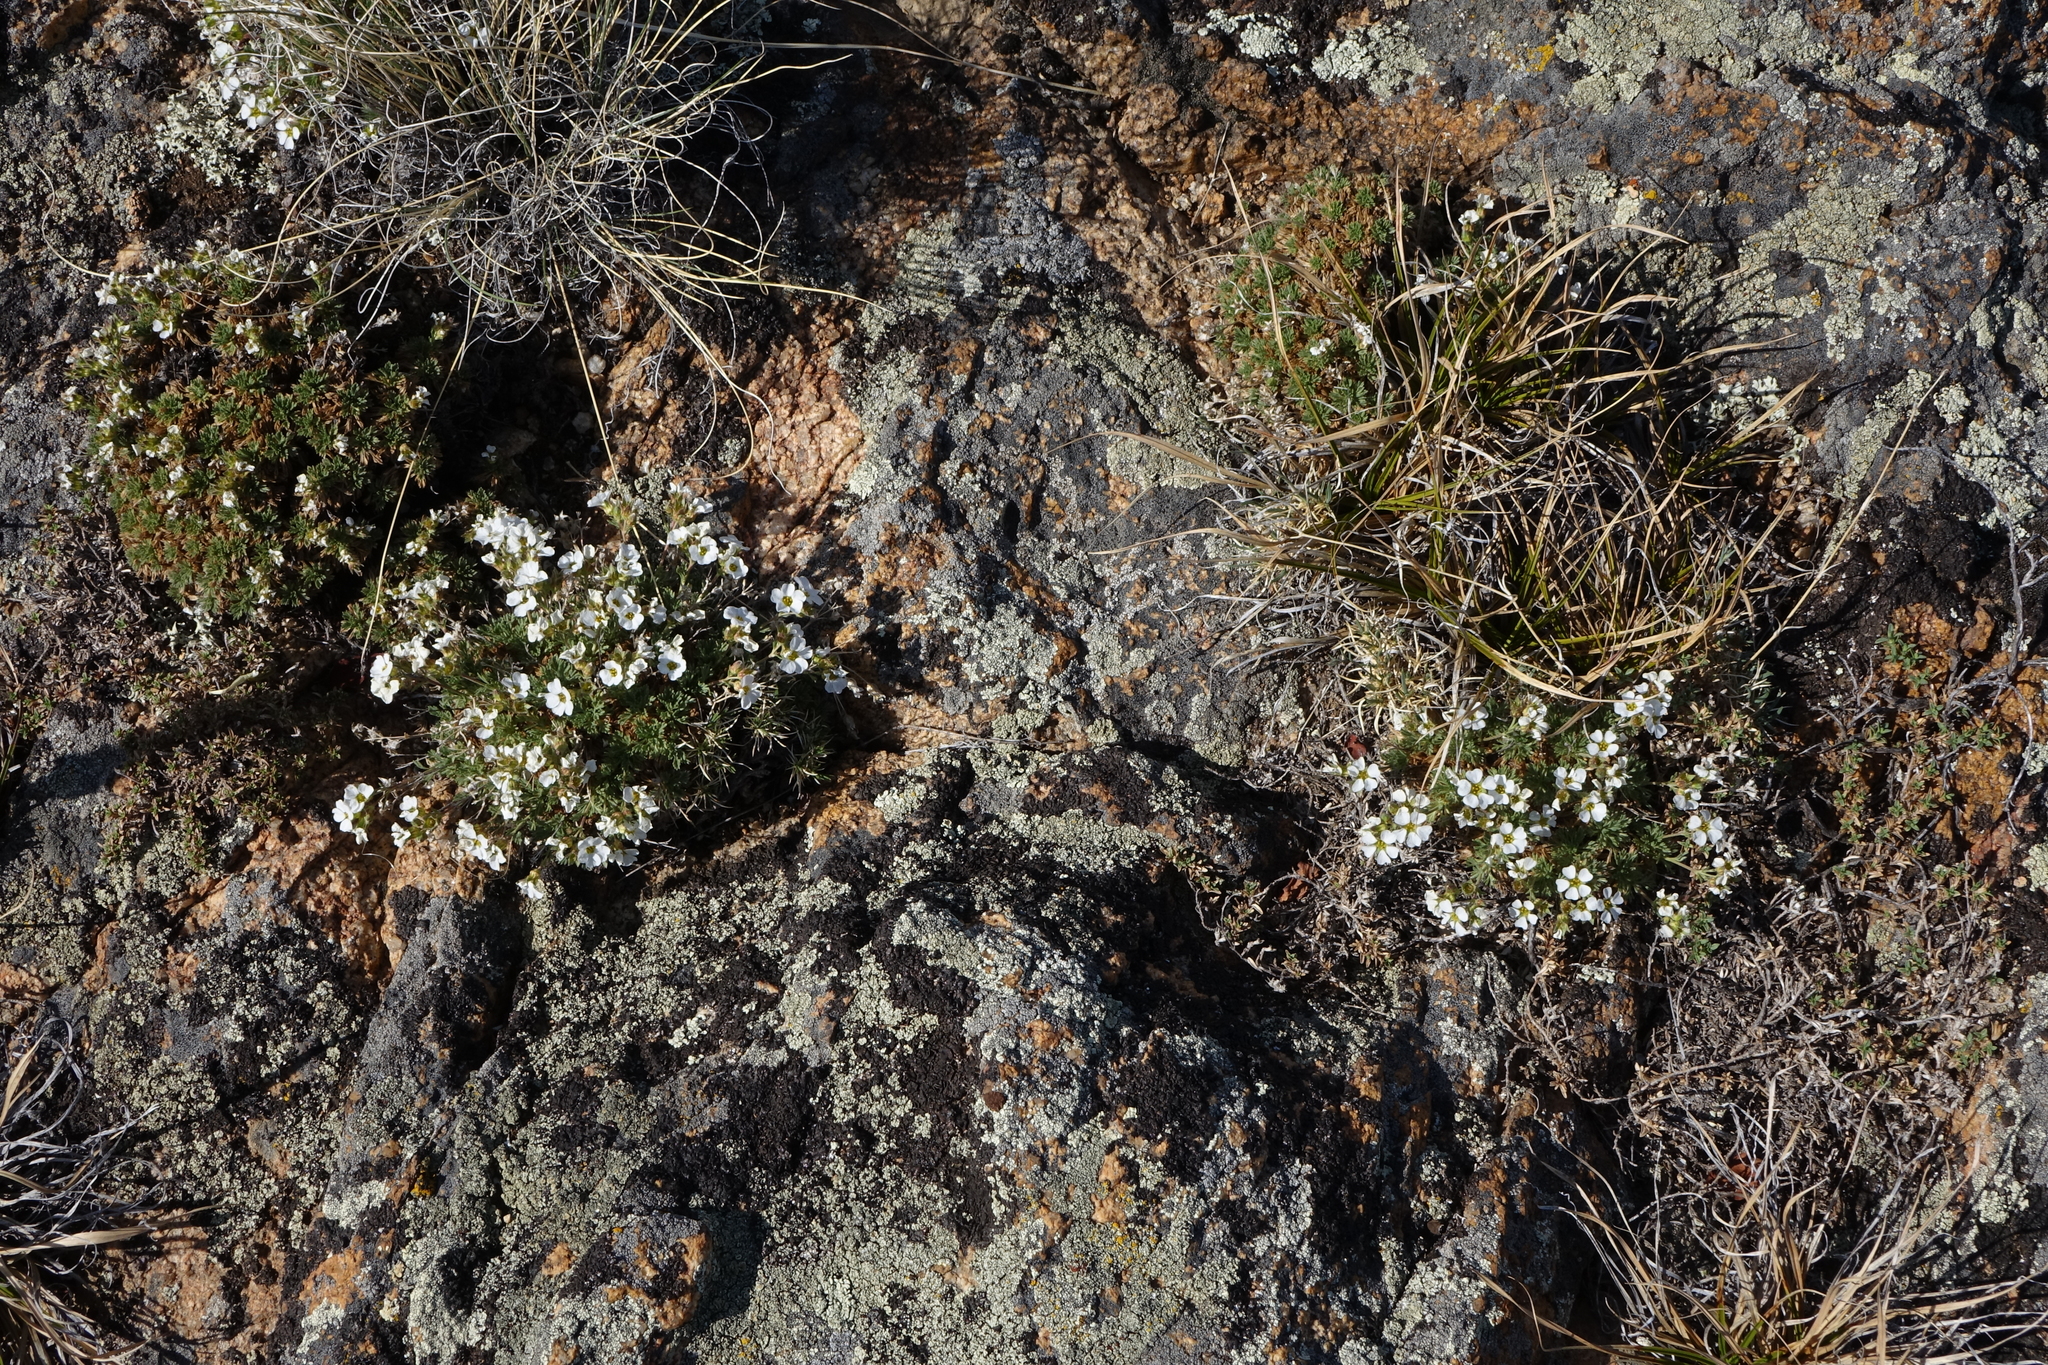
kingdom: Plantae
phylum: Tracheophyta
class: Magnoliopsida
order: Rosales
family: Rosaceae
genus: Chamaerhodos
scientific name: Chamaerhodos altaica
